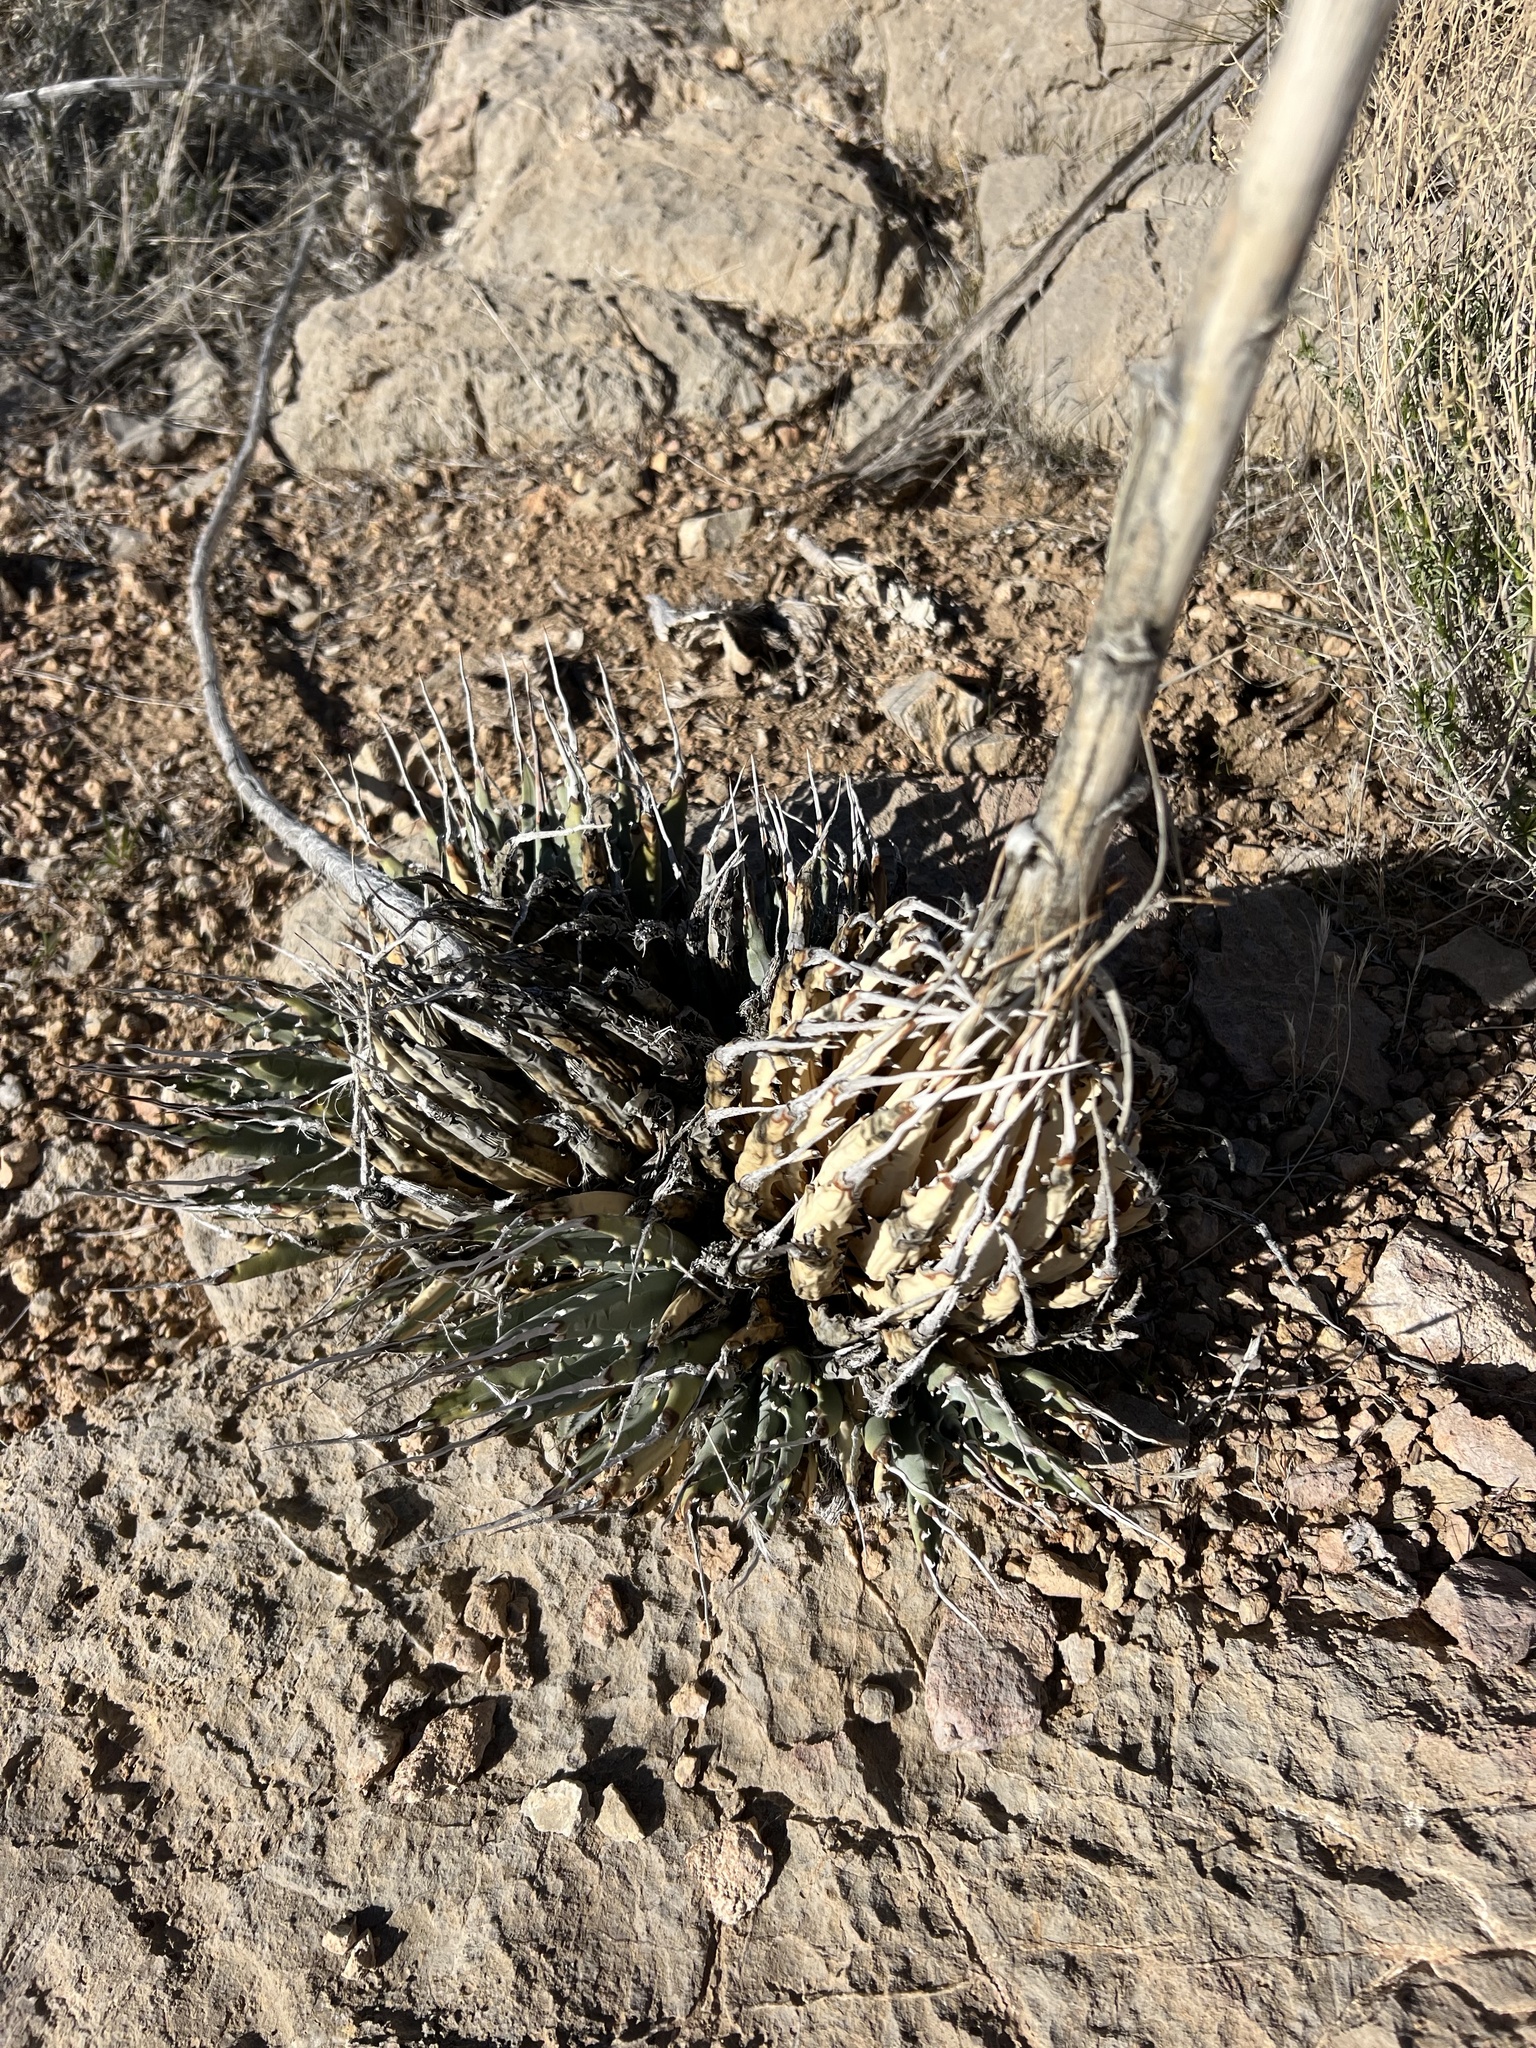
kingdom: Plantae
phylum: Tracheophyta
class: Liliopsida
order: Asparagales
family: Asparagaceae
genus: Agave
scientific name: Agave utahensis
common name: Utah agave
